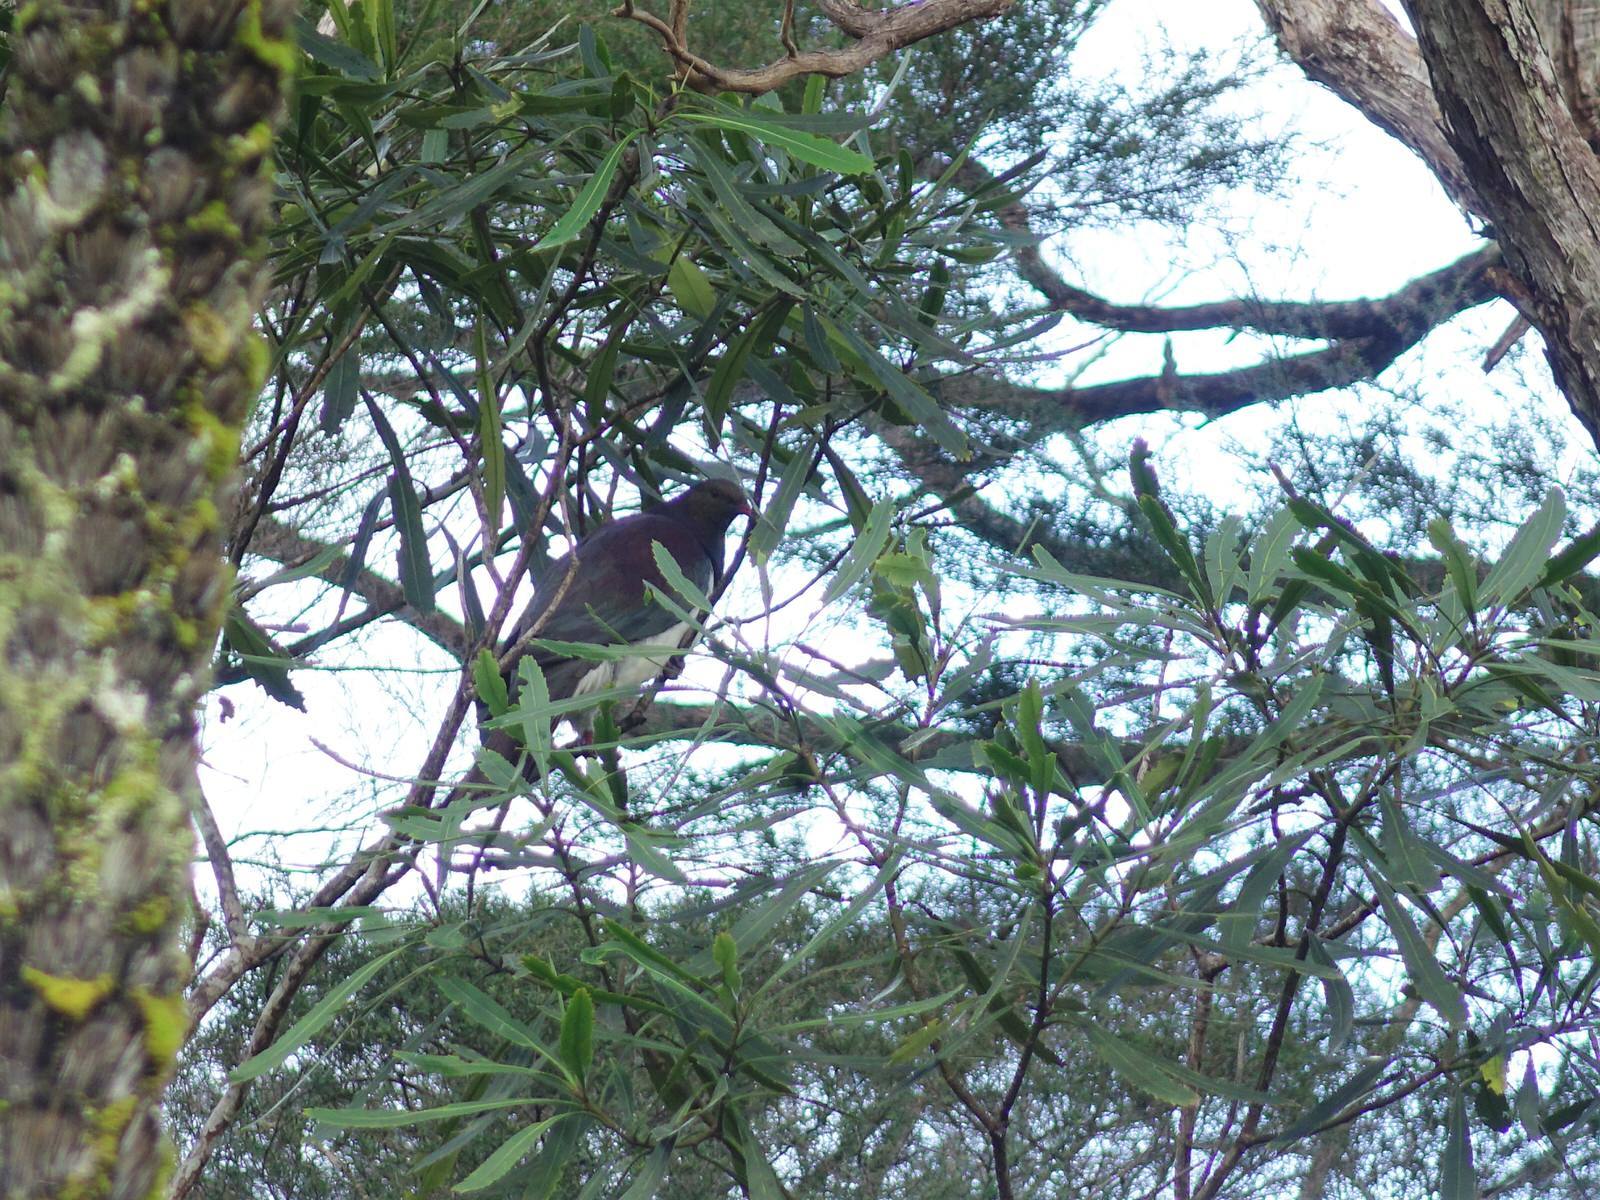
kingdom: Animalia
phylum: Chordata
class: Aves
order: Columbiformes
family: Columbidae
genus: Hemiphaga
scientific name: Hemiphaga novaeseelandiae
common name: New zealand pigeon
